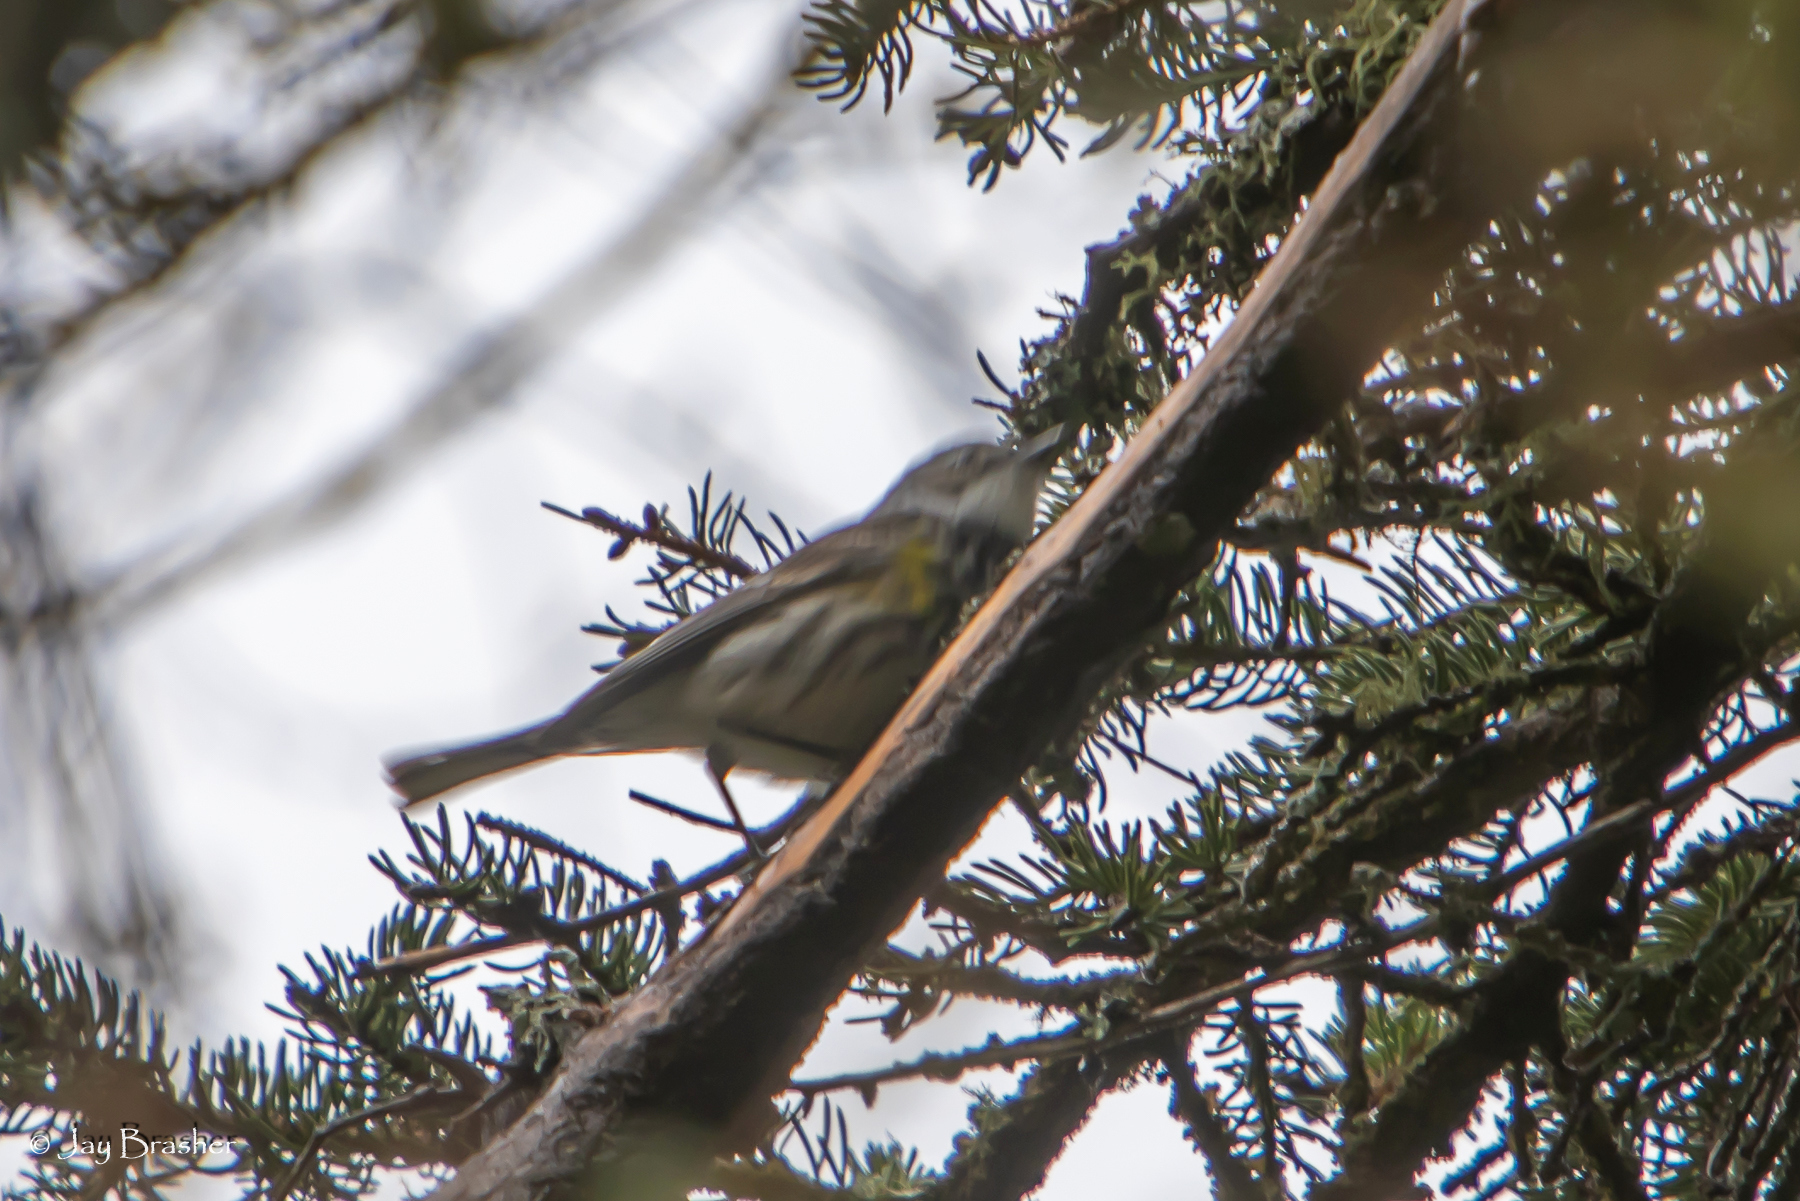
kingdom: Animalia
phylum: Chordata
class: Aves
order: Passeriformes
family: Parulidae
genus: Setophaga
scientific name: Setophaga coronata
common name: Myrtle warbler
